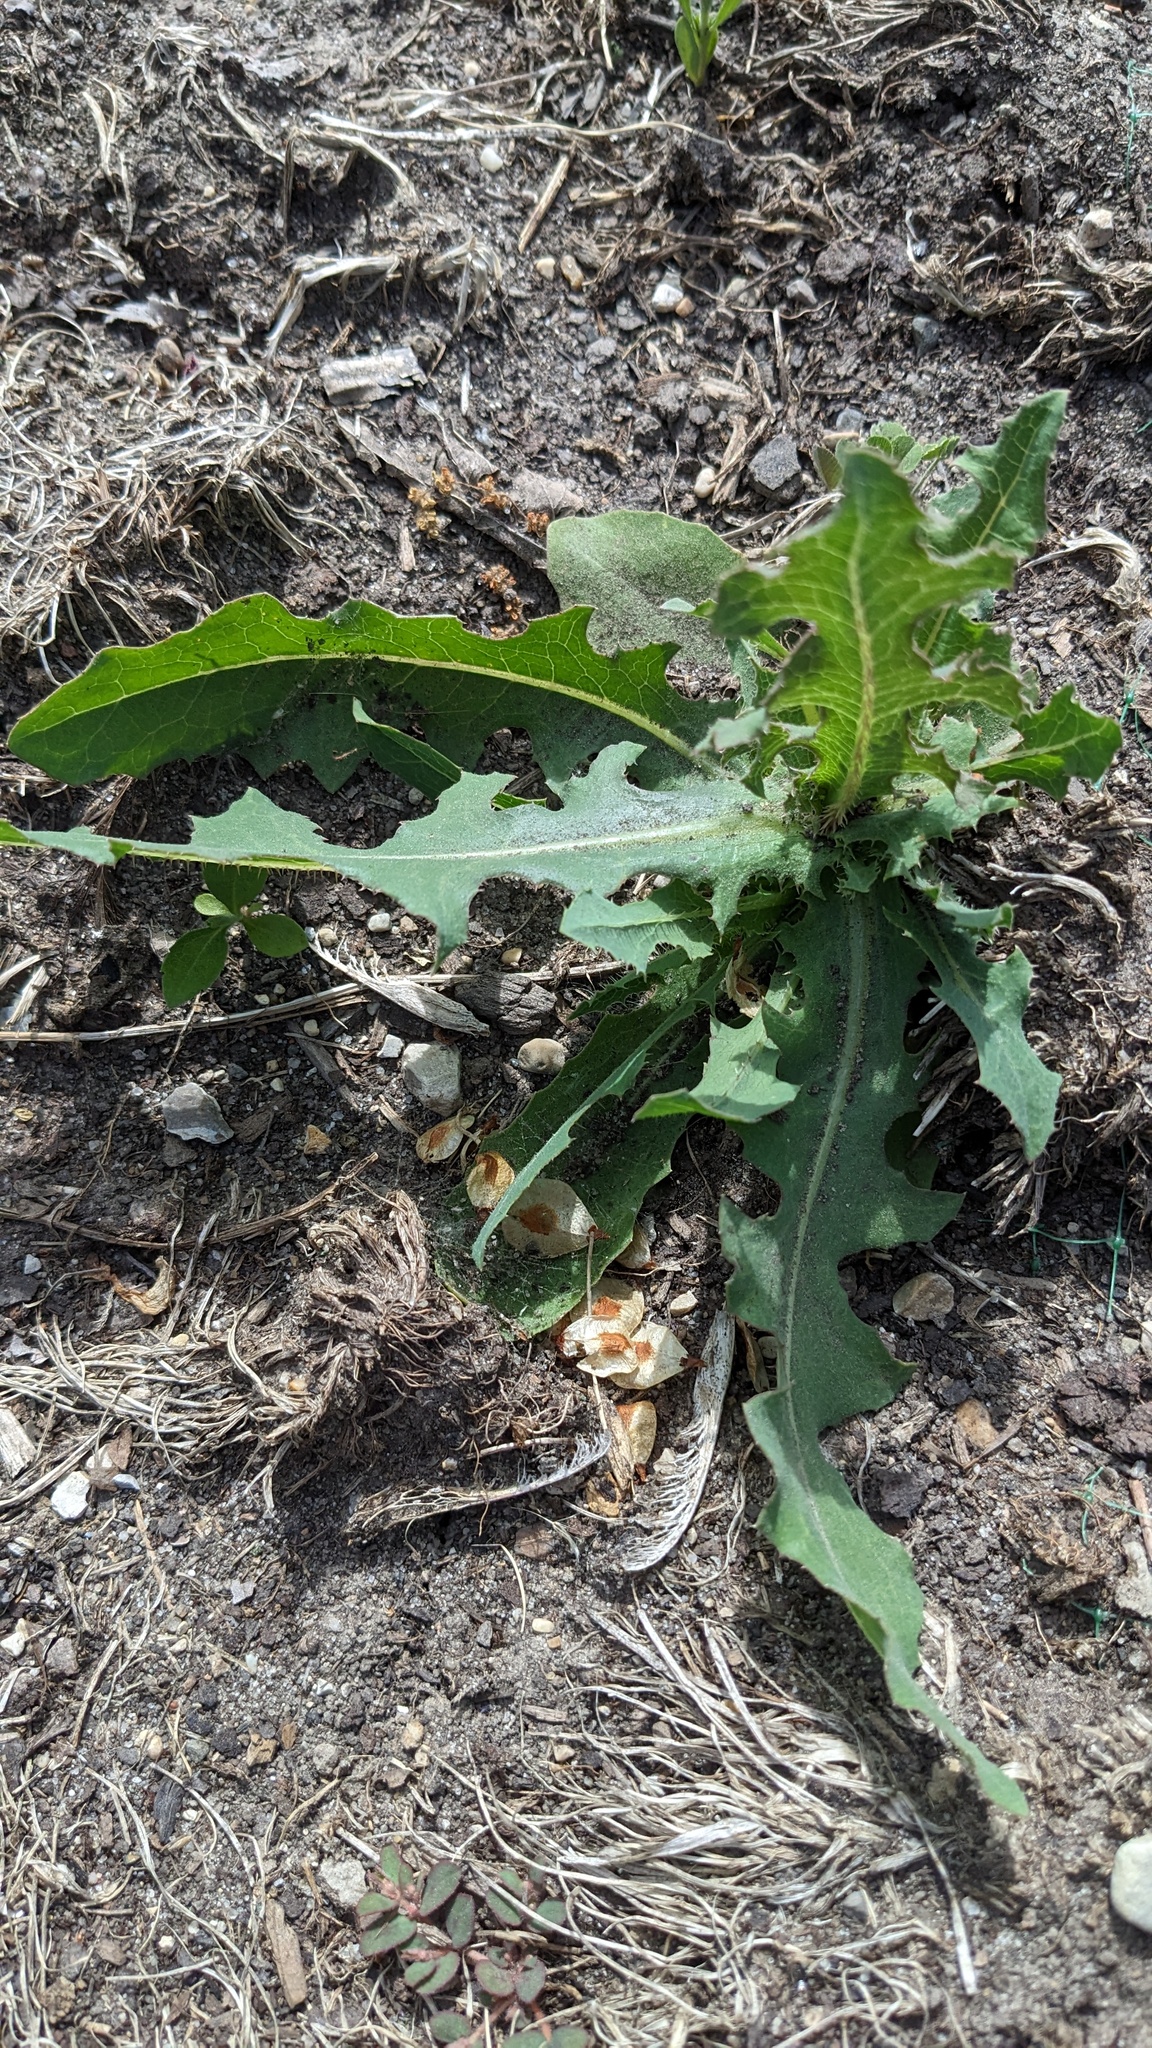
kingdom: Plantae
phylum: Tracheophyta
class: Magnoliopsida
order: Asterales
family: Asteraceae
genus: Lactuca
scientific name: Lactuca serriola
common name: Prickly lettuce
